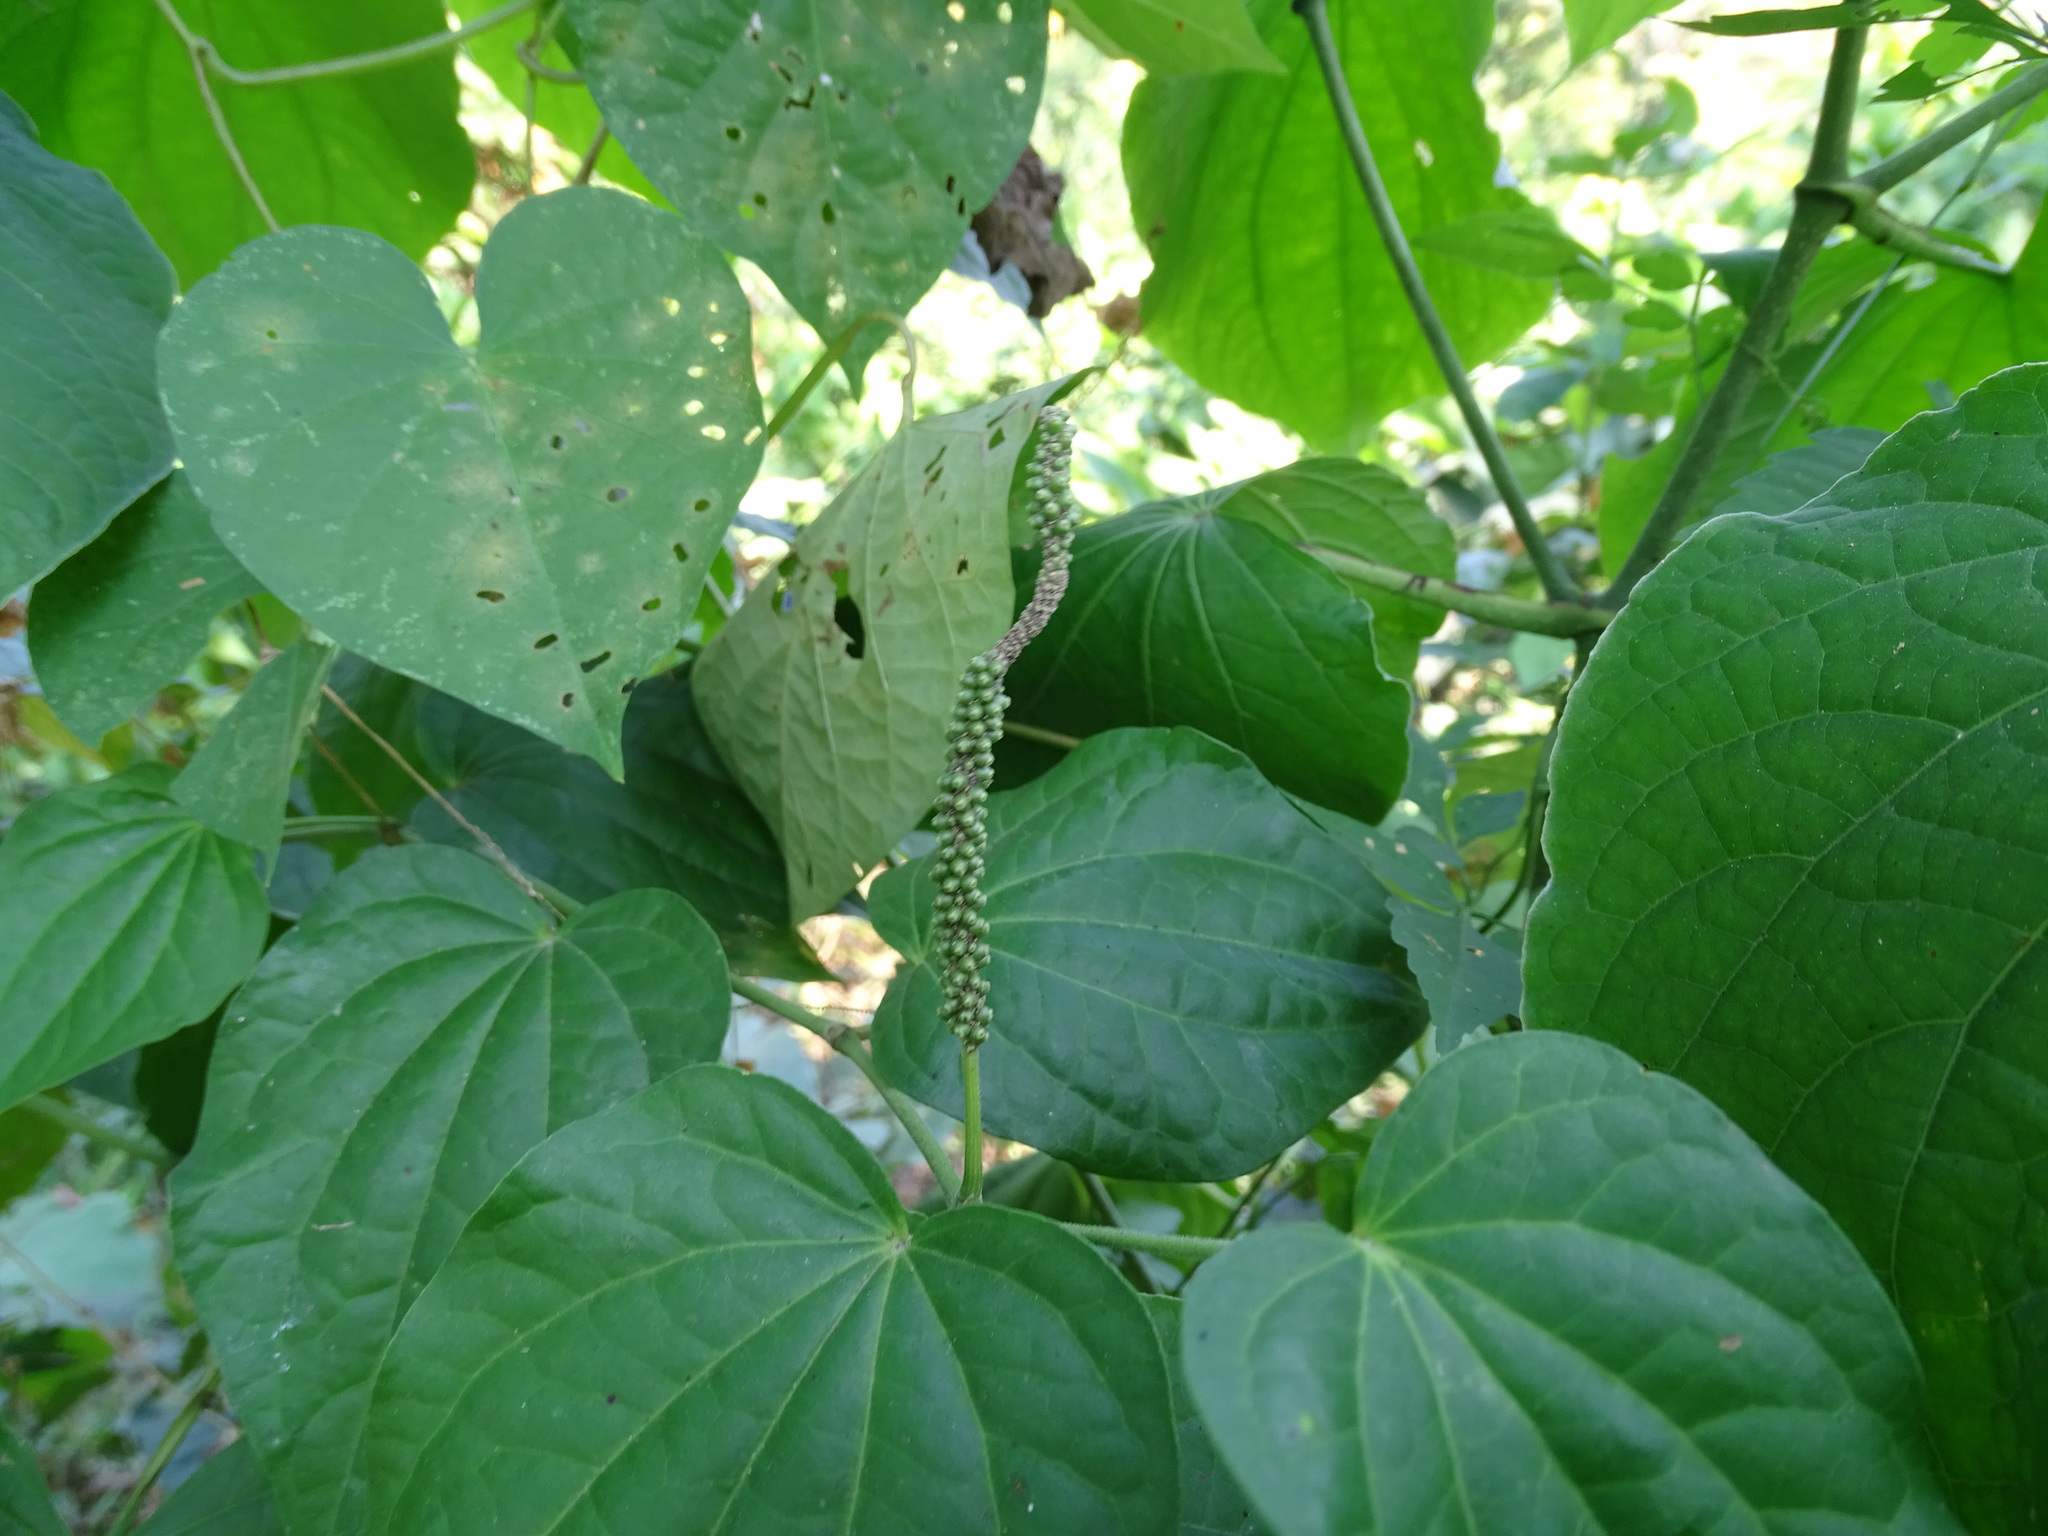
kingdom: Plantae
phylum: Tracheophyta
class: Magnoliopsida
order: Piperales
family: Piperaceae
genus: Piper
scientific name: Piper amalago
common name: Pepper-elder
